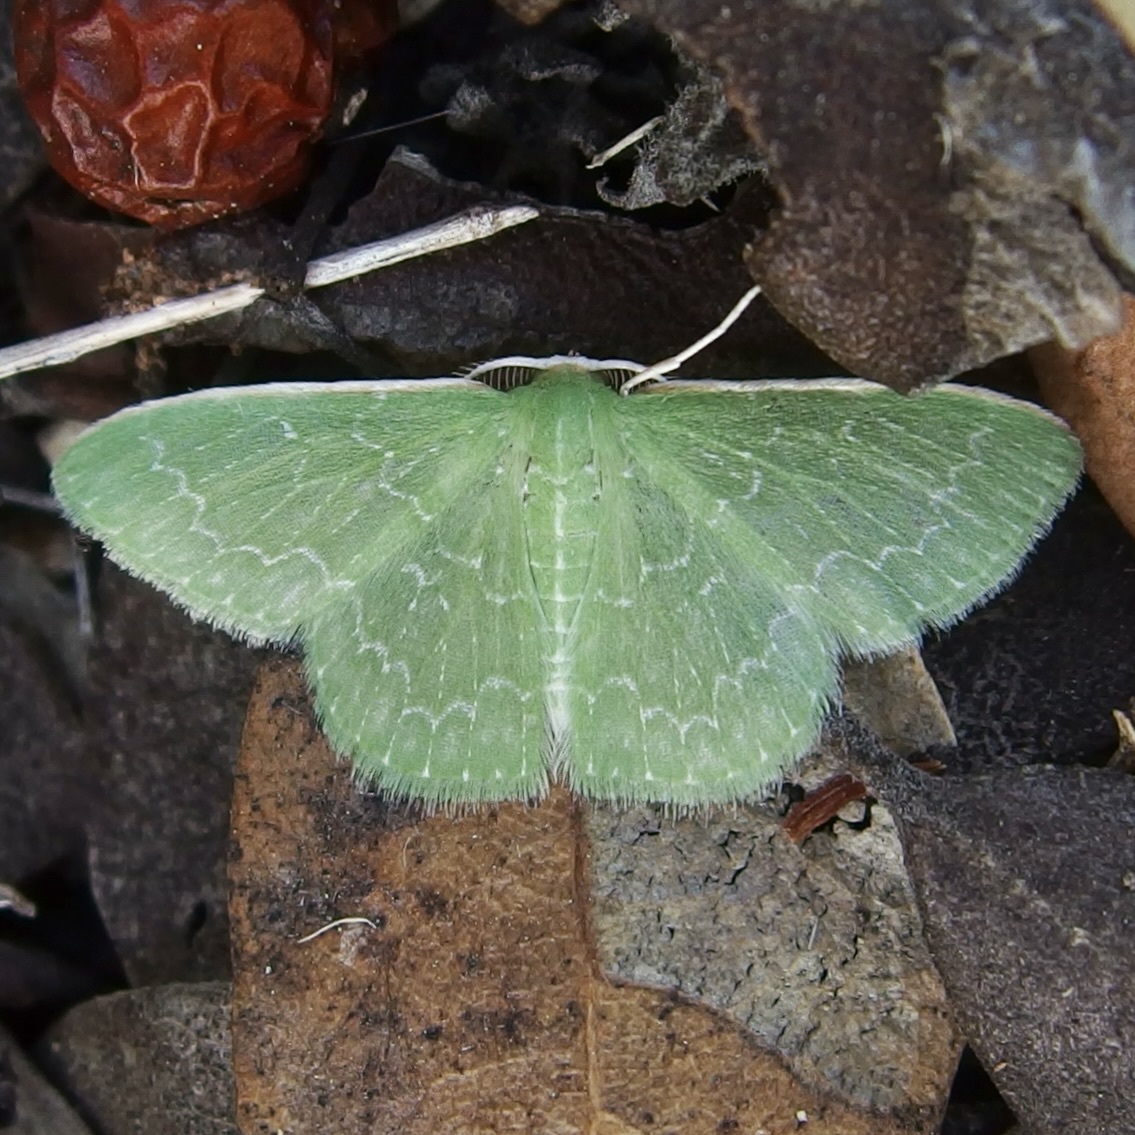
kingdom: Animalia
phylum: Arthropoda
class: Insecta
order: Lepidoptera
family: Geometridae
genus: Synchlora
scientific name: Synchlora frondaria
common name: Southern emerald
